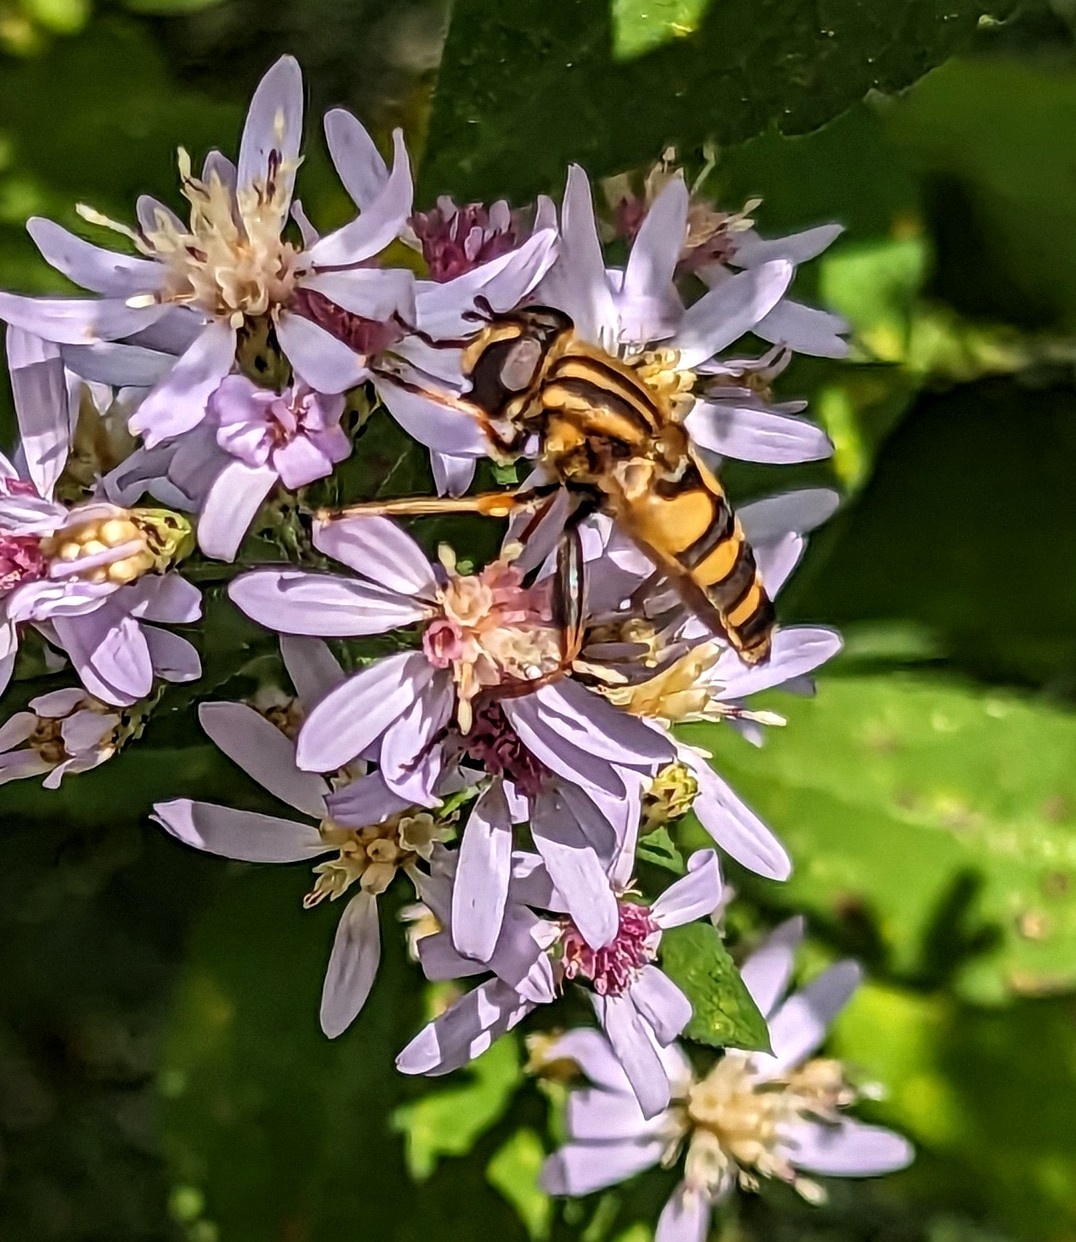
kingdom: Animalia
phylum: Arthropoda
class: Insecta
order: Diptera
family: Syrphidae
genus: Helophilus
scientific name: Helophilus fasciatus
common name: Narrow-headed marsh fly
